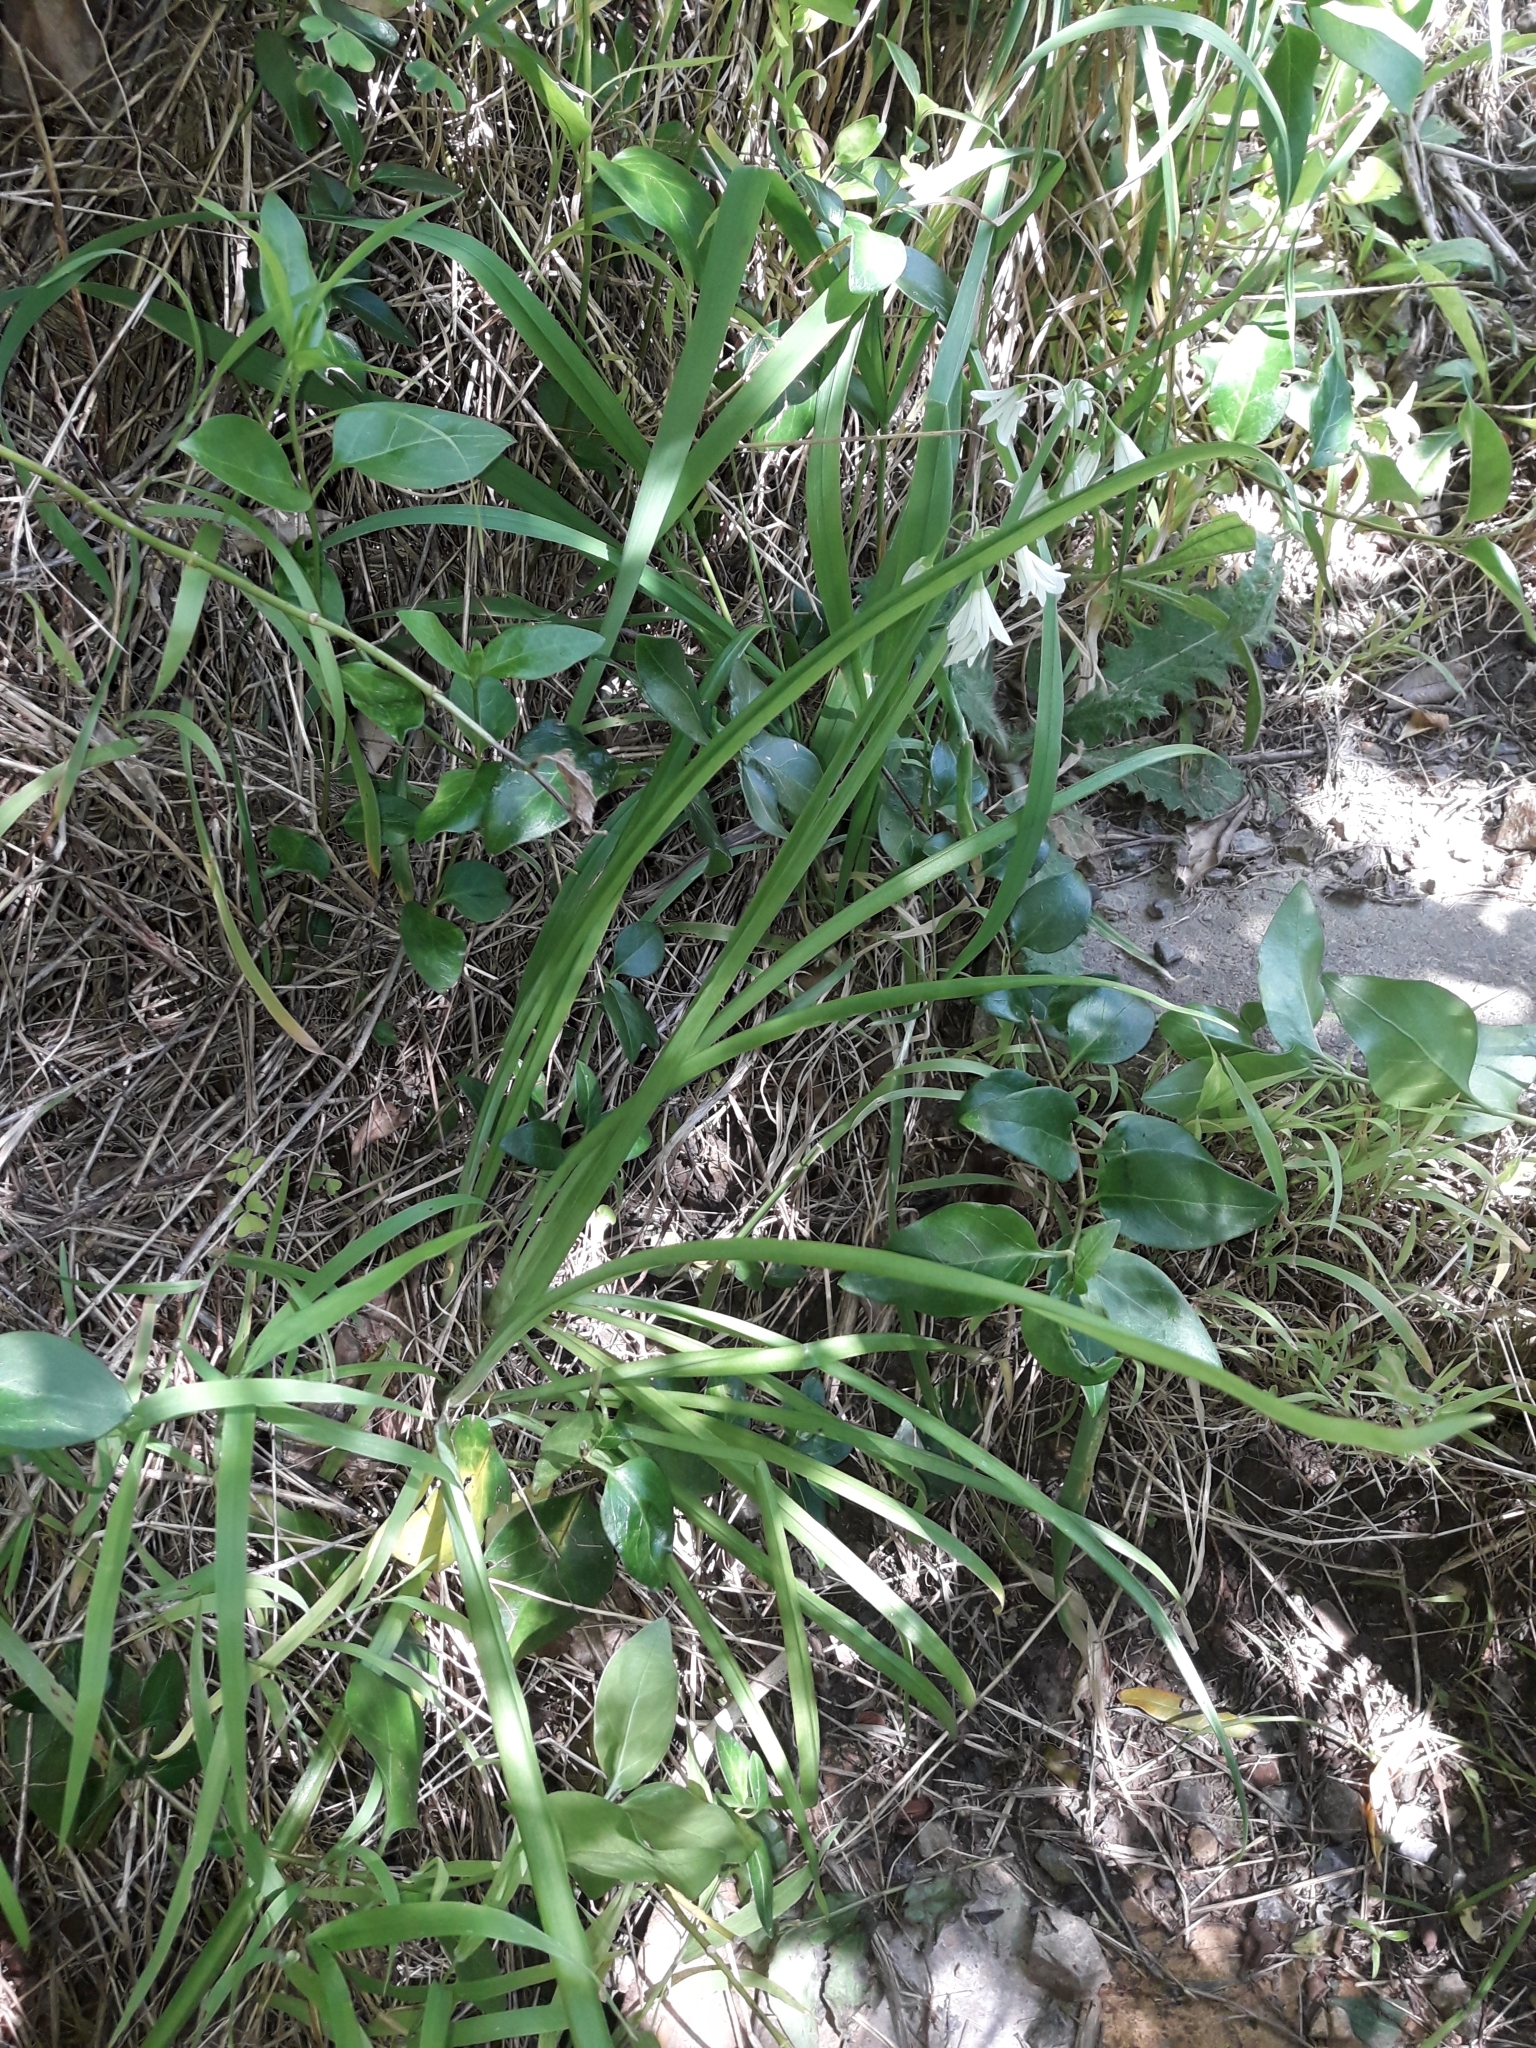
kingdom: Plantae
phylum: Tracheophyta
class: Liliopsida
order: Asparagales
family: Amaryllidaceae
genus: Allium
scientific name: Allium triquetrum
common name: Three-cornered garlic
